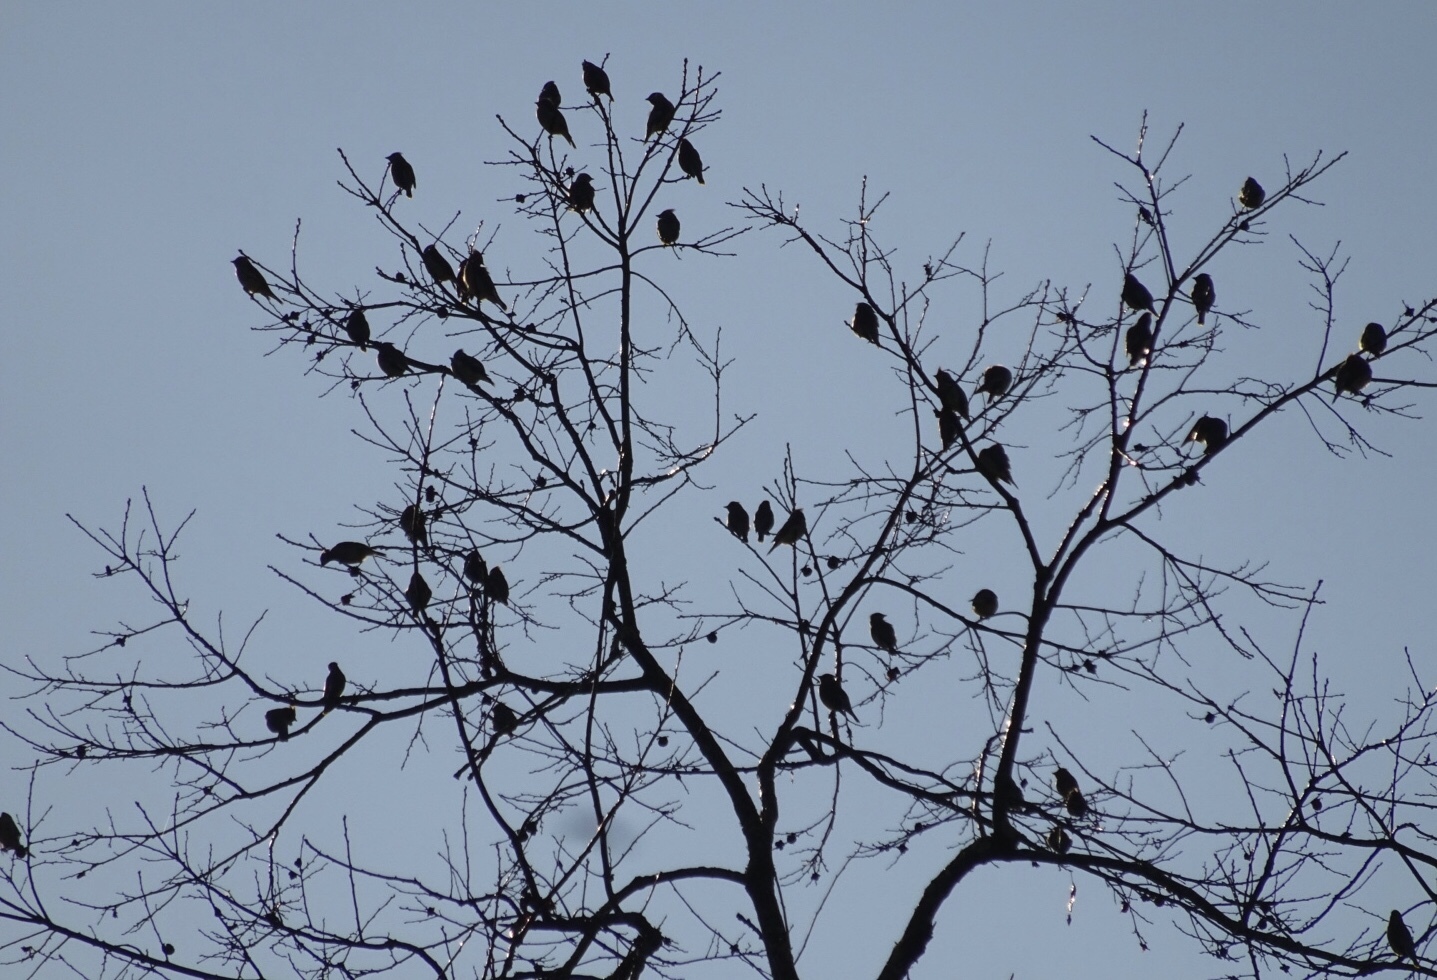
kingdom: Animalia
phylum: Chordata
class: Aves
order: Passeriformes
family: Bombycillidae
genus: Bombycilla
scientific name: Bombycilla cedrorum
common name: Cedar waxwing
